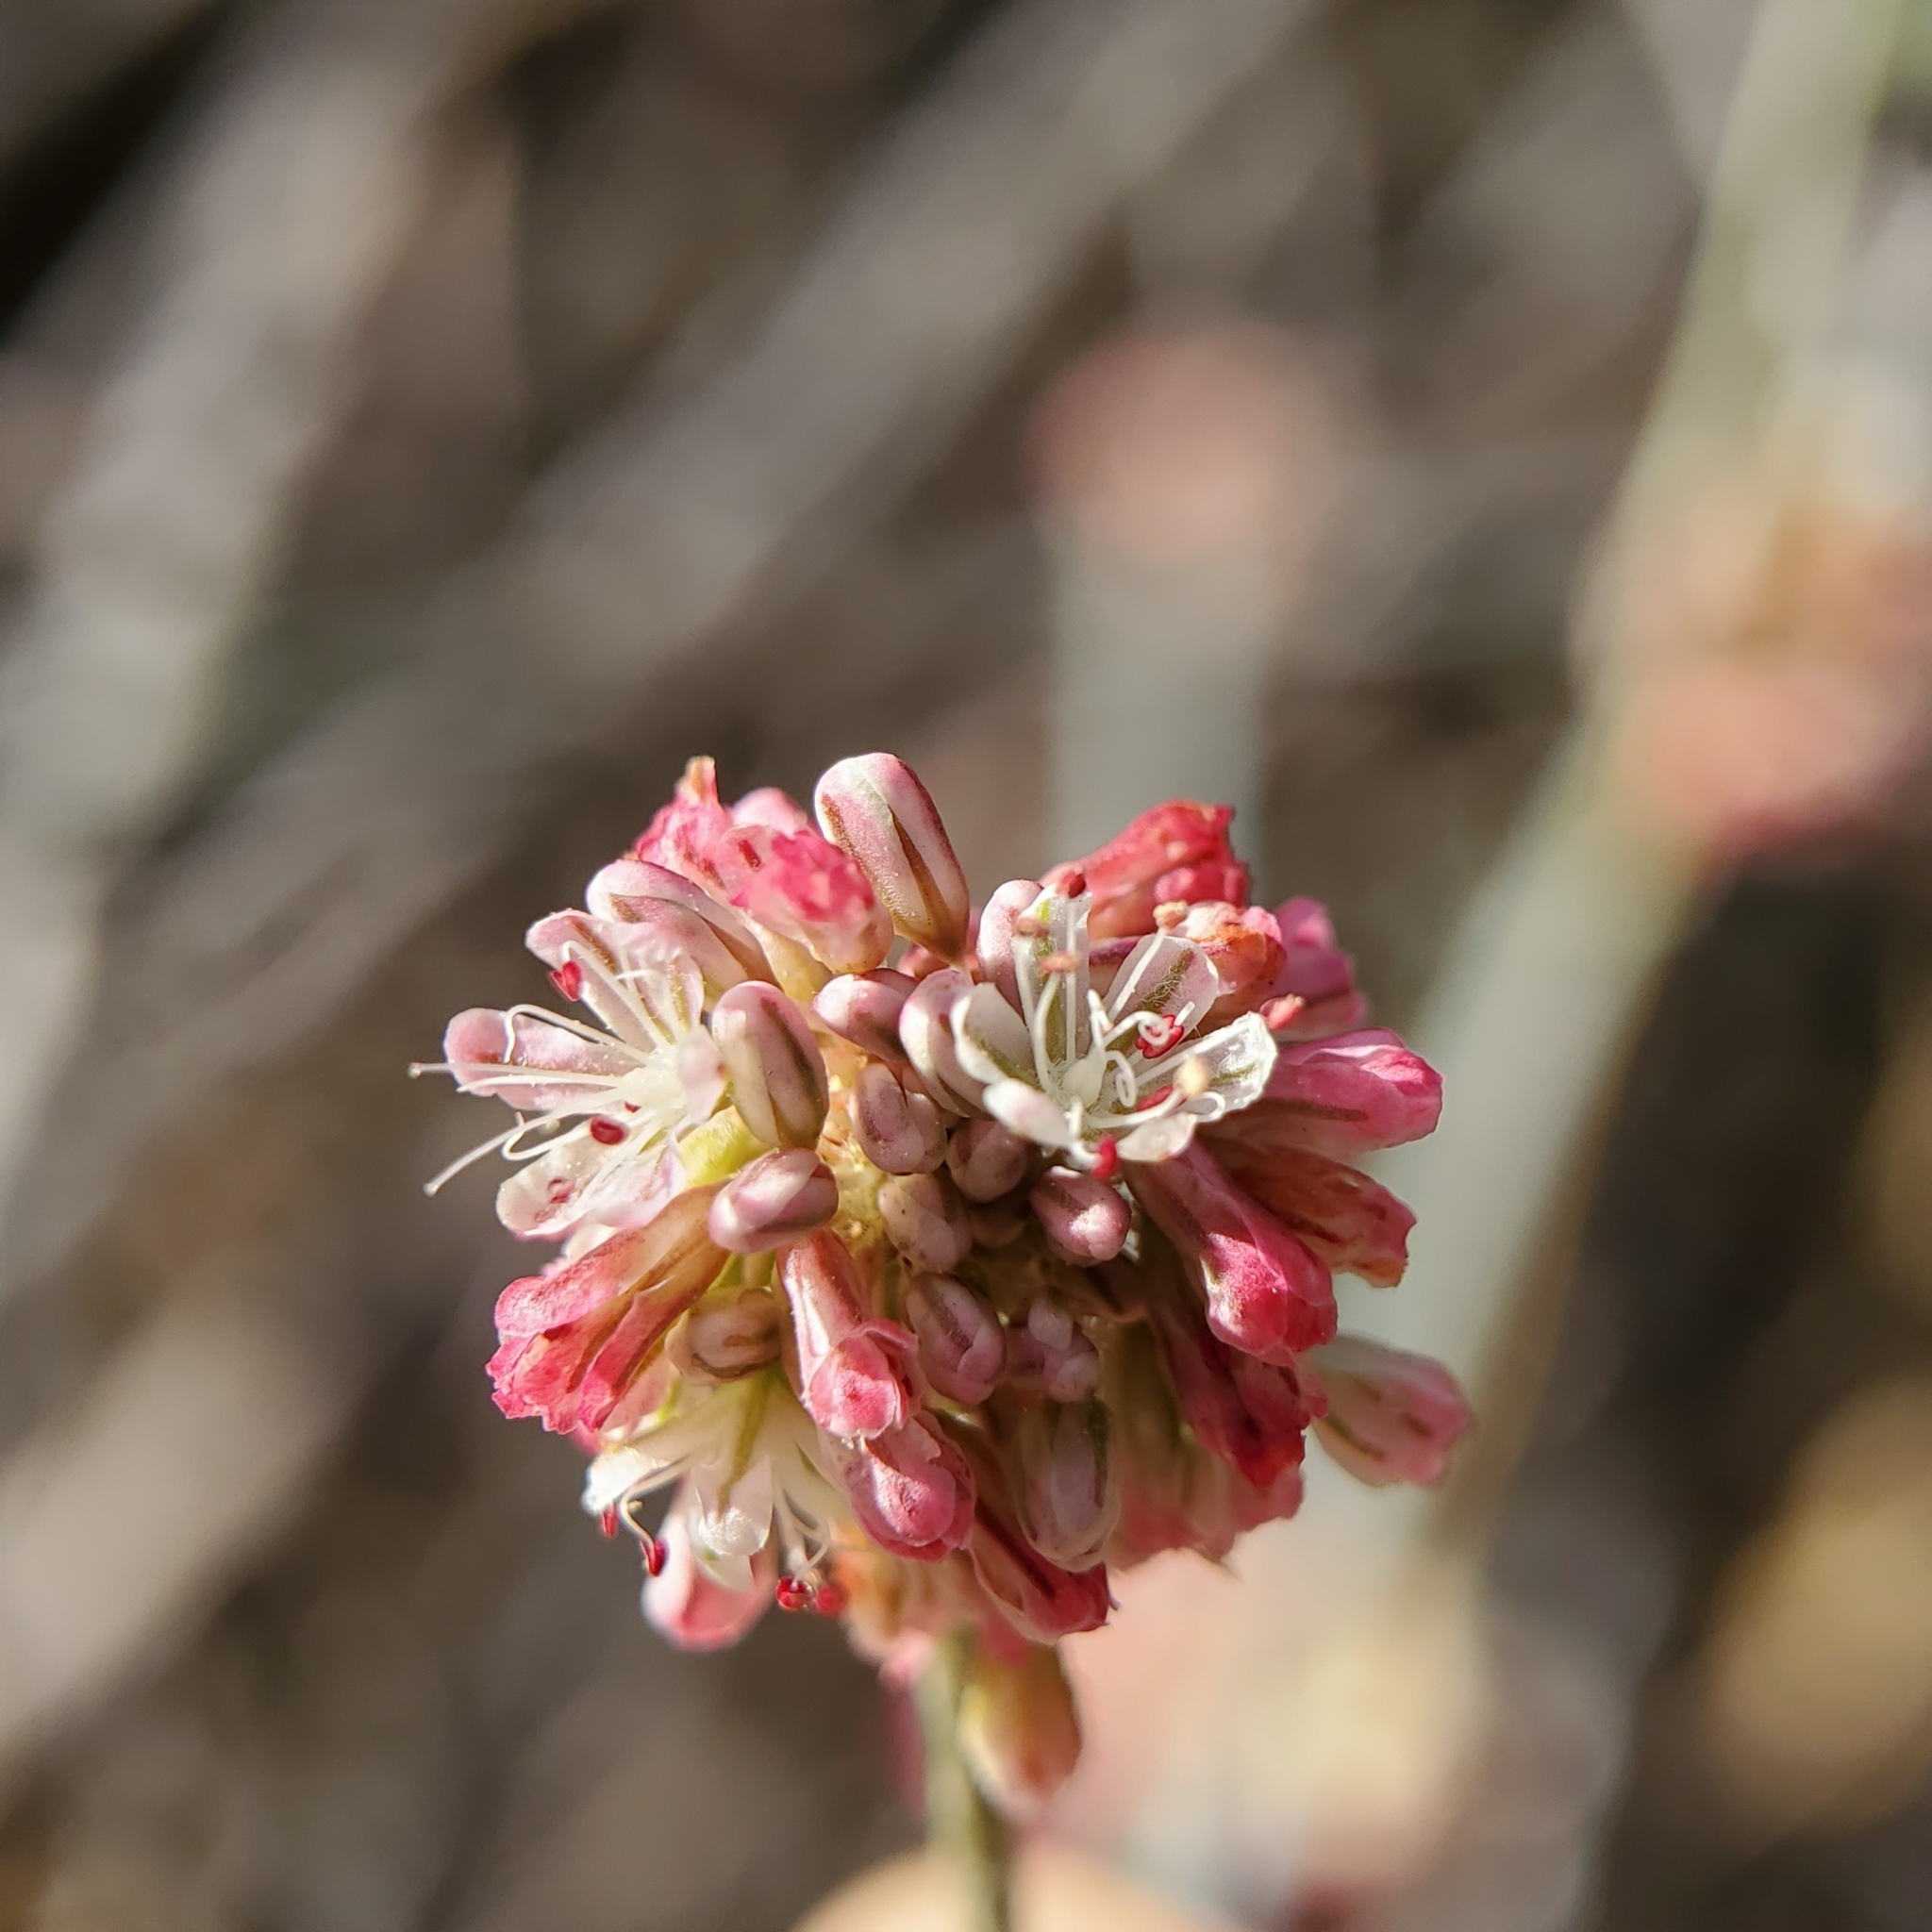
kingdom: Plantae
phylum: Tracheophyta
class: Magnoliopsida
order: Caryophyllales
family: Polygonaceae
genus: Eriogonum
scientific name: Eriogonum elongatum
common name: Long-stem wild buckwheat
